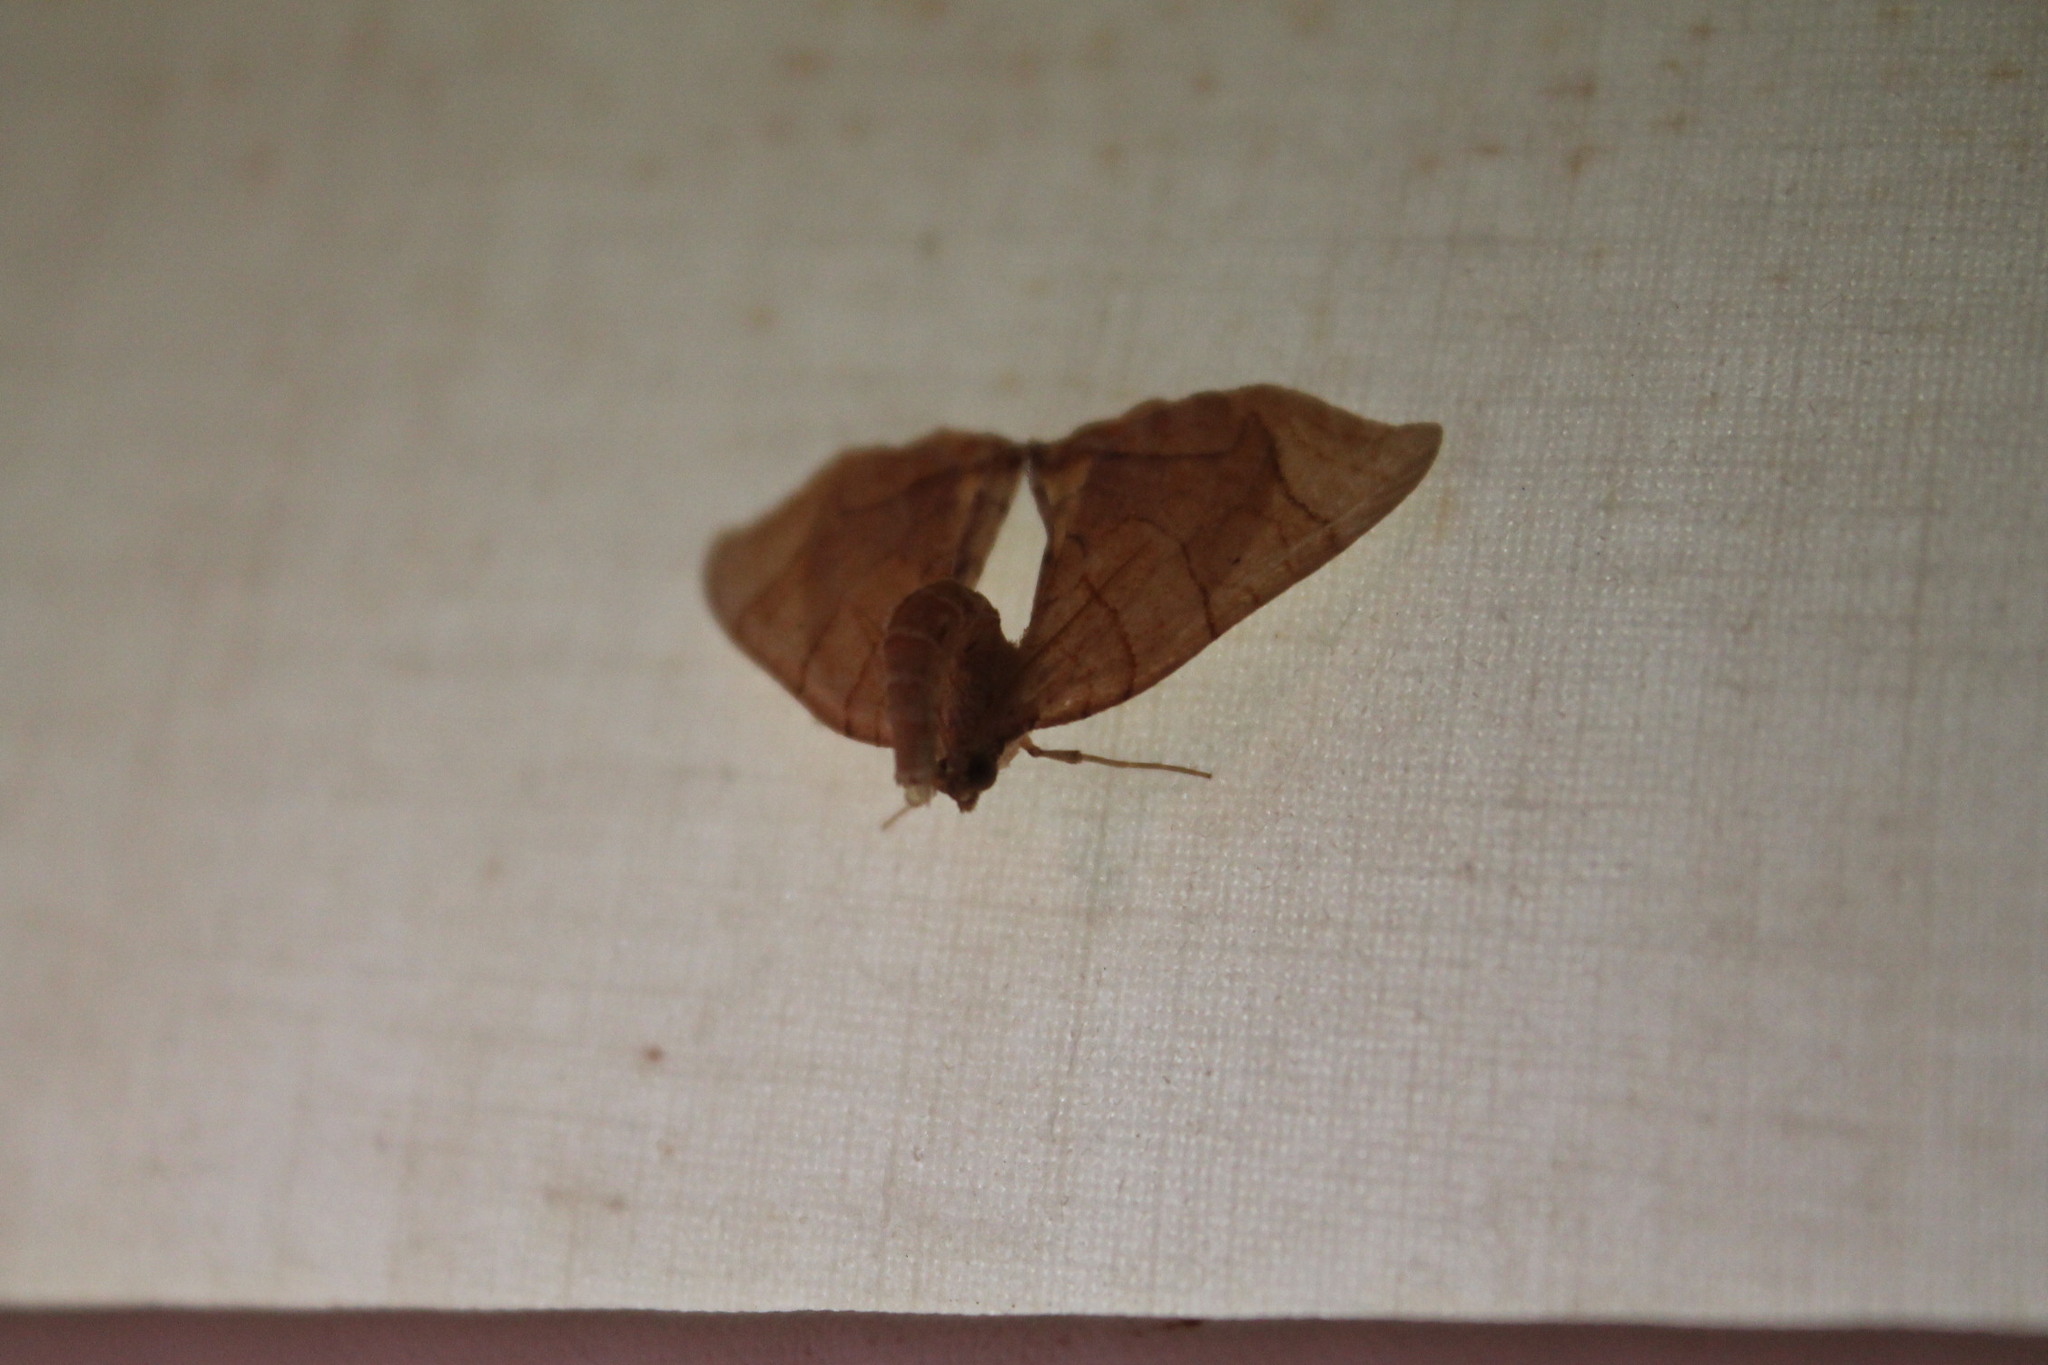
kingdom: Animalia
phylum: Arthropoda
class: Insecta
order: Lepidoptera
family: Geometridae
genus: Eulithis
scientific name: Eulithis diversilineata
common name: Grapevine looper
